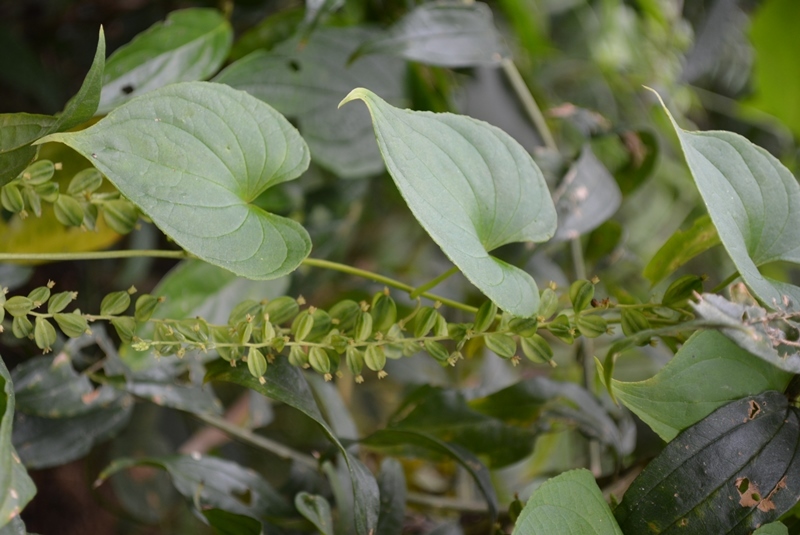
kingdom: Plantae
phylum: Tracheophyta
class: Liliopsida
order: Dioscoreales
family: Dioscoreaceae
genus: Dioscorea
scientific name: Dioscorea carpomaculata
